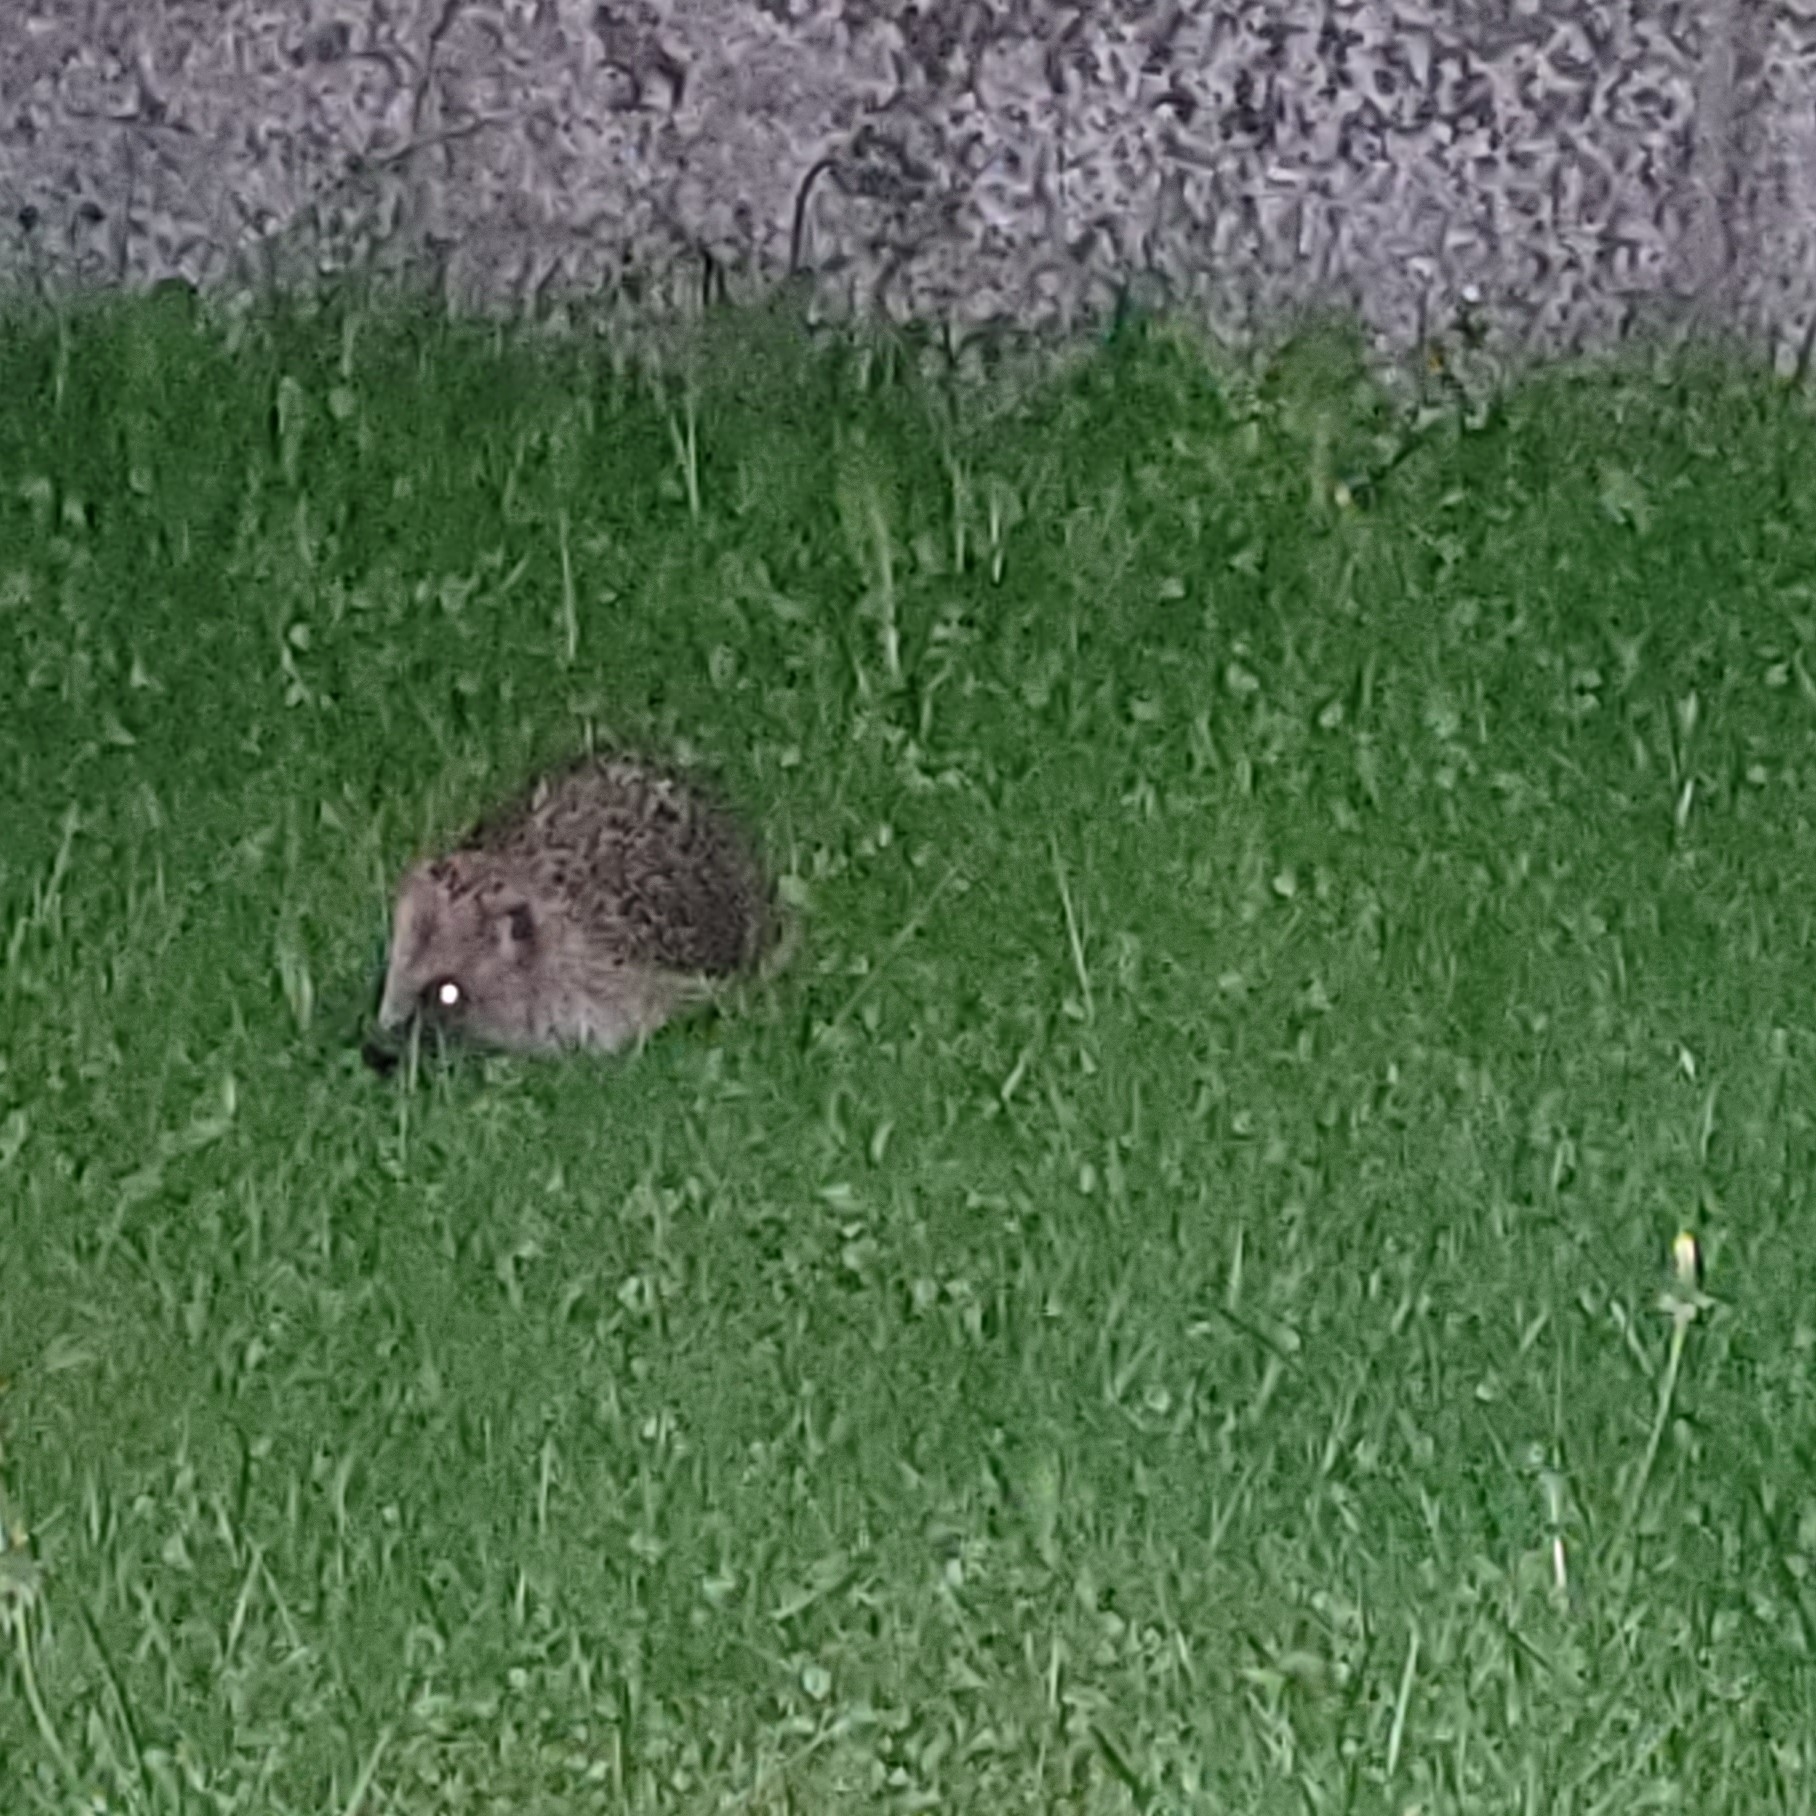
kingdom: Animalia
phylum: Chordata
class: Mammalia
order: Erinaceomorpha
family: Erinaceidae
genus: Erinaceus
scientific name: Erinaceus europaeus
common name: West european hedgehog
